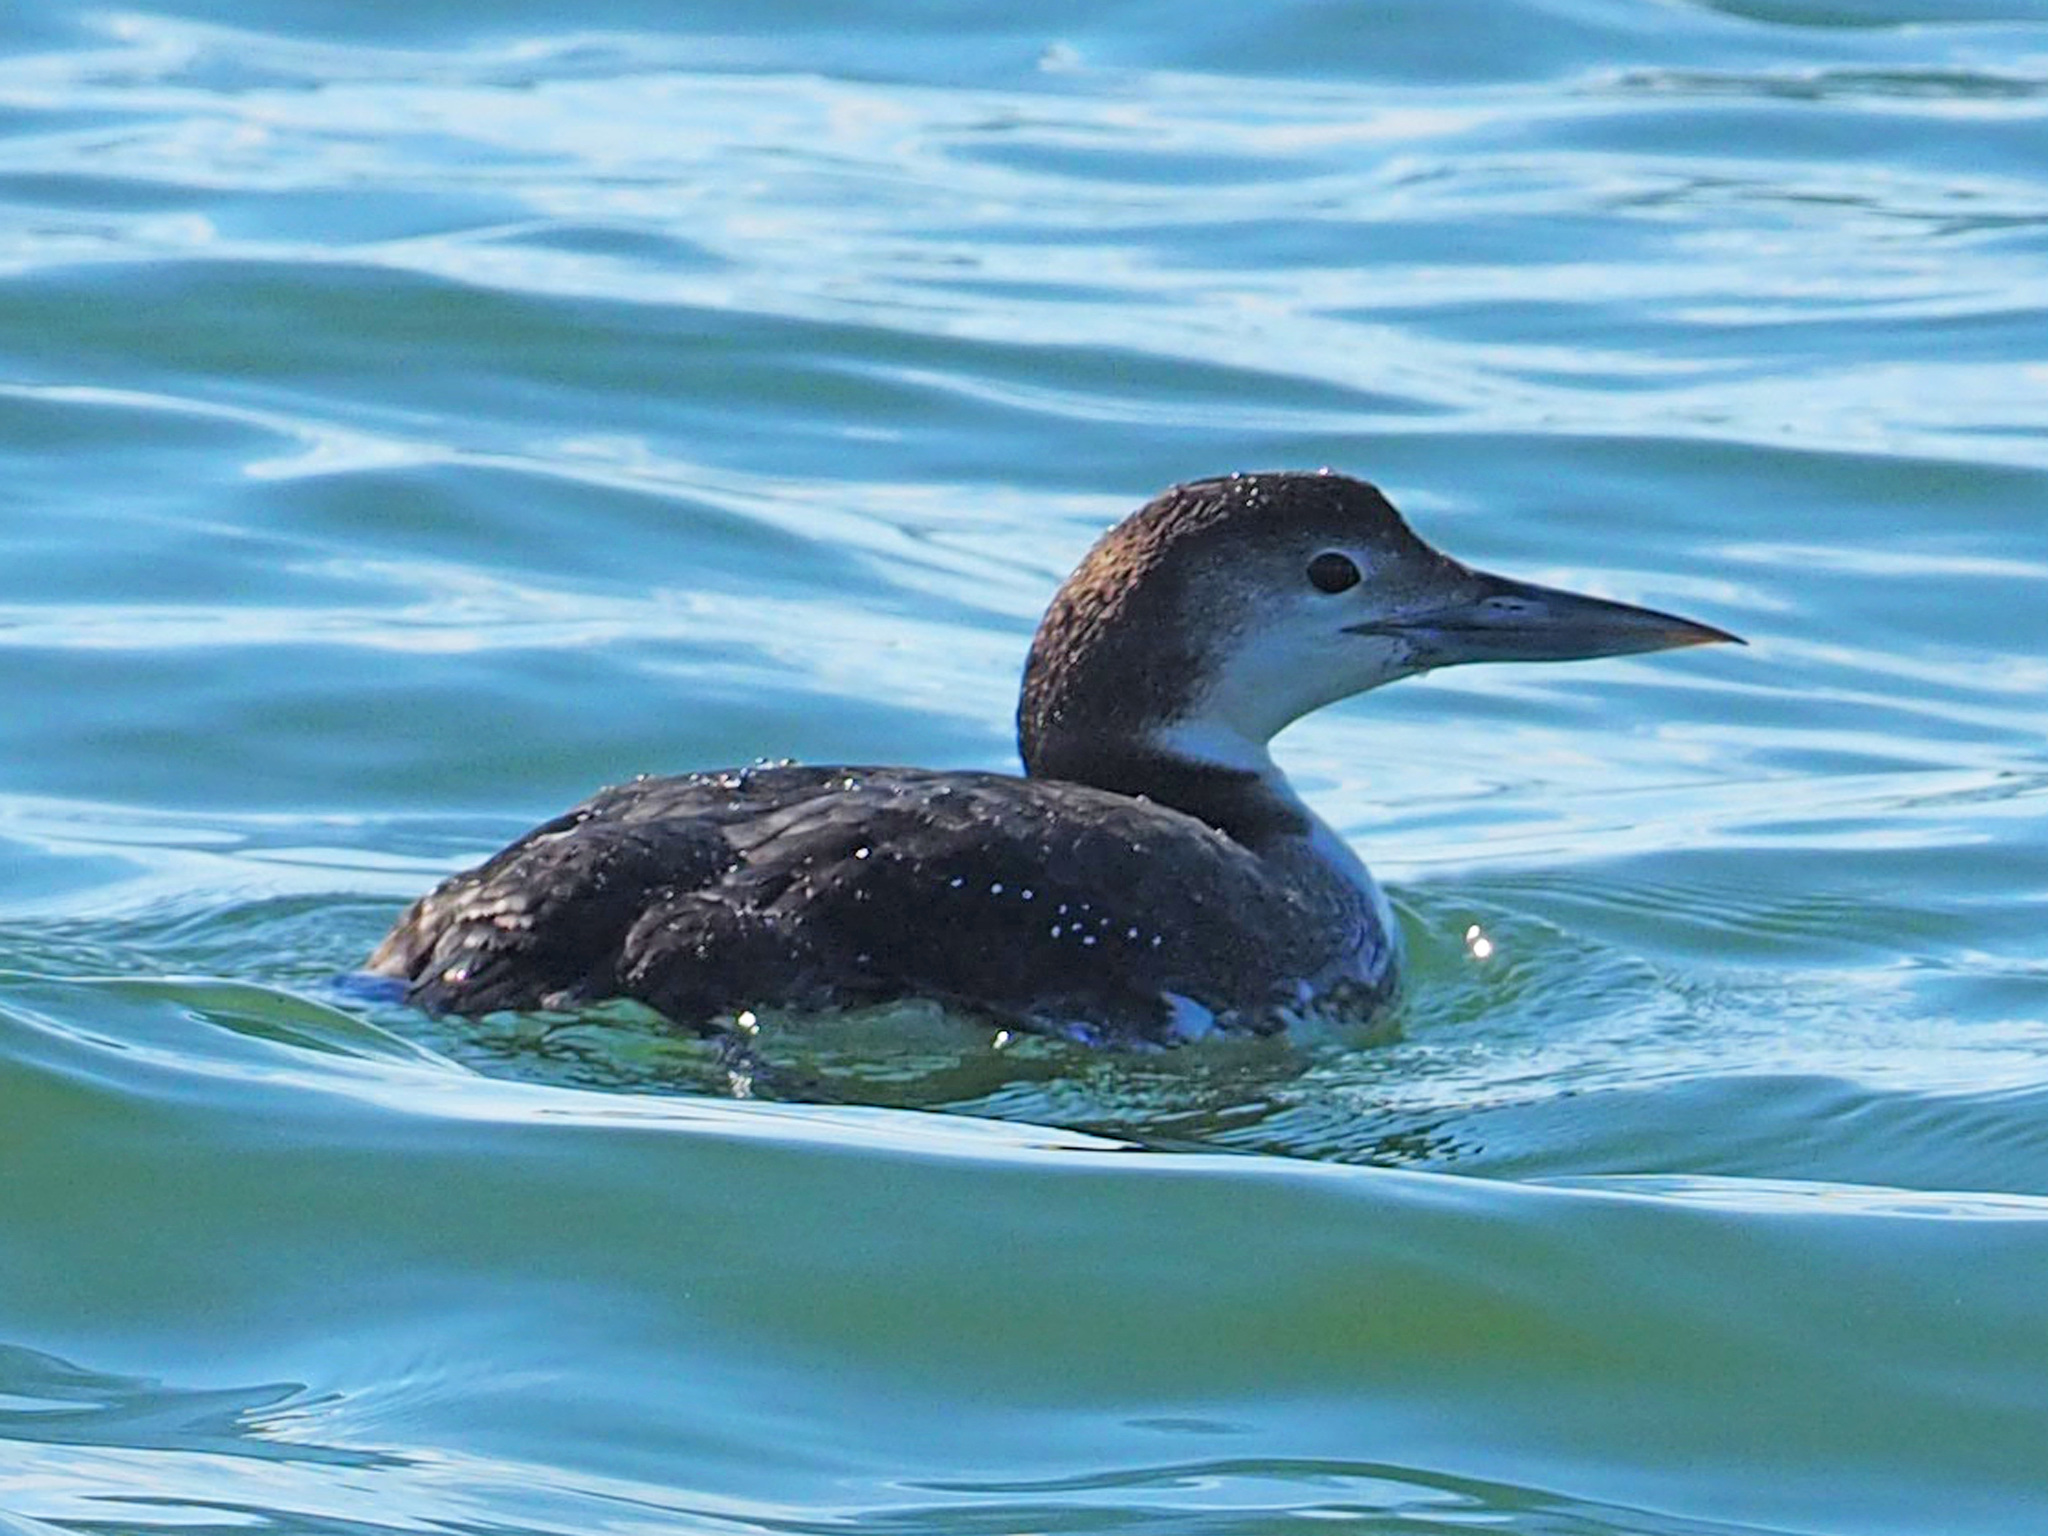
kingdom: Animalia
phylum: Chordata
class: Aves
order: Gaviiformes
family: Gaviidae
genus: Gavia
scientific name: Gavia immer
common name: Common loon
